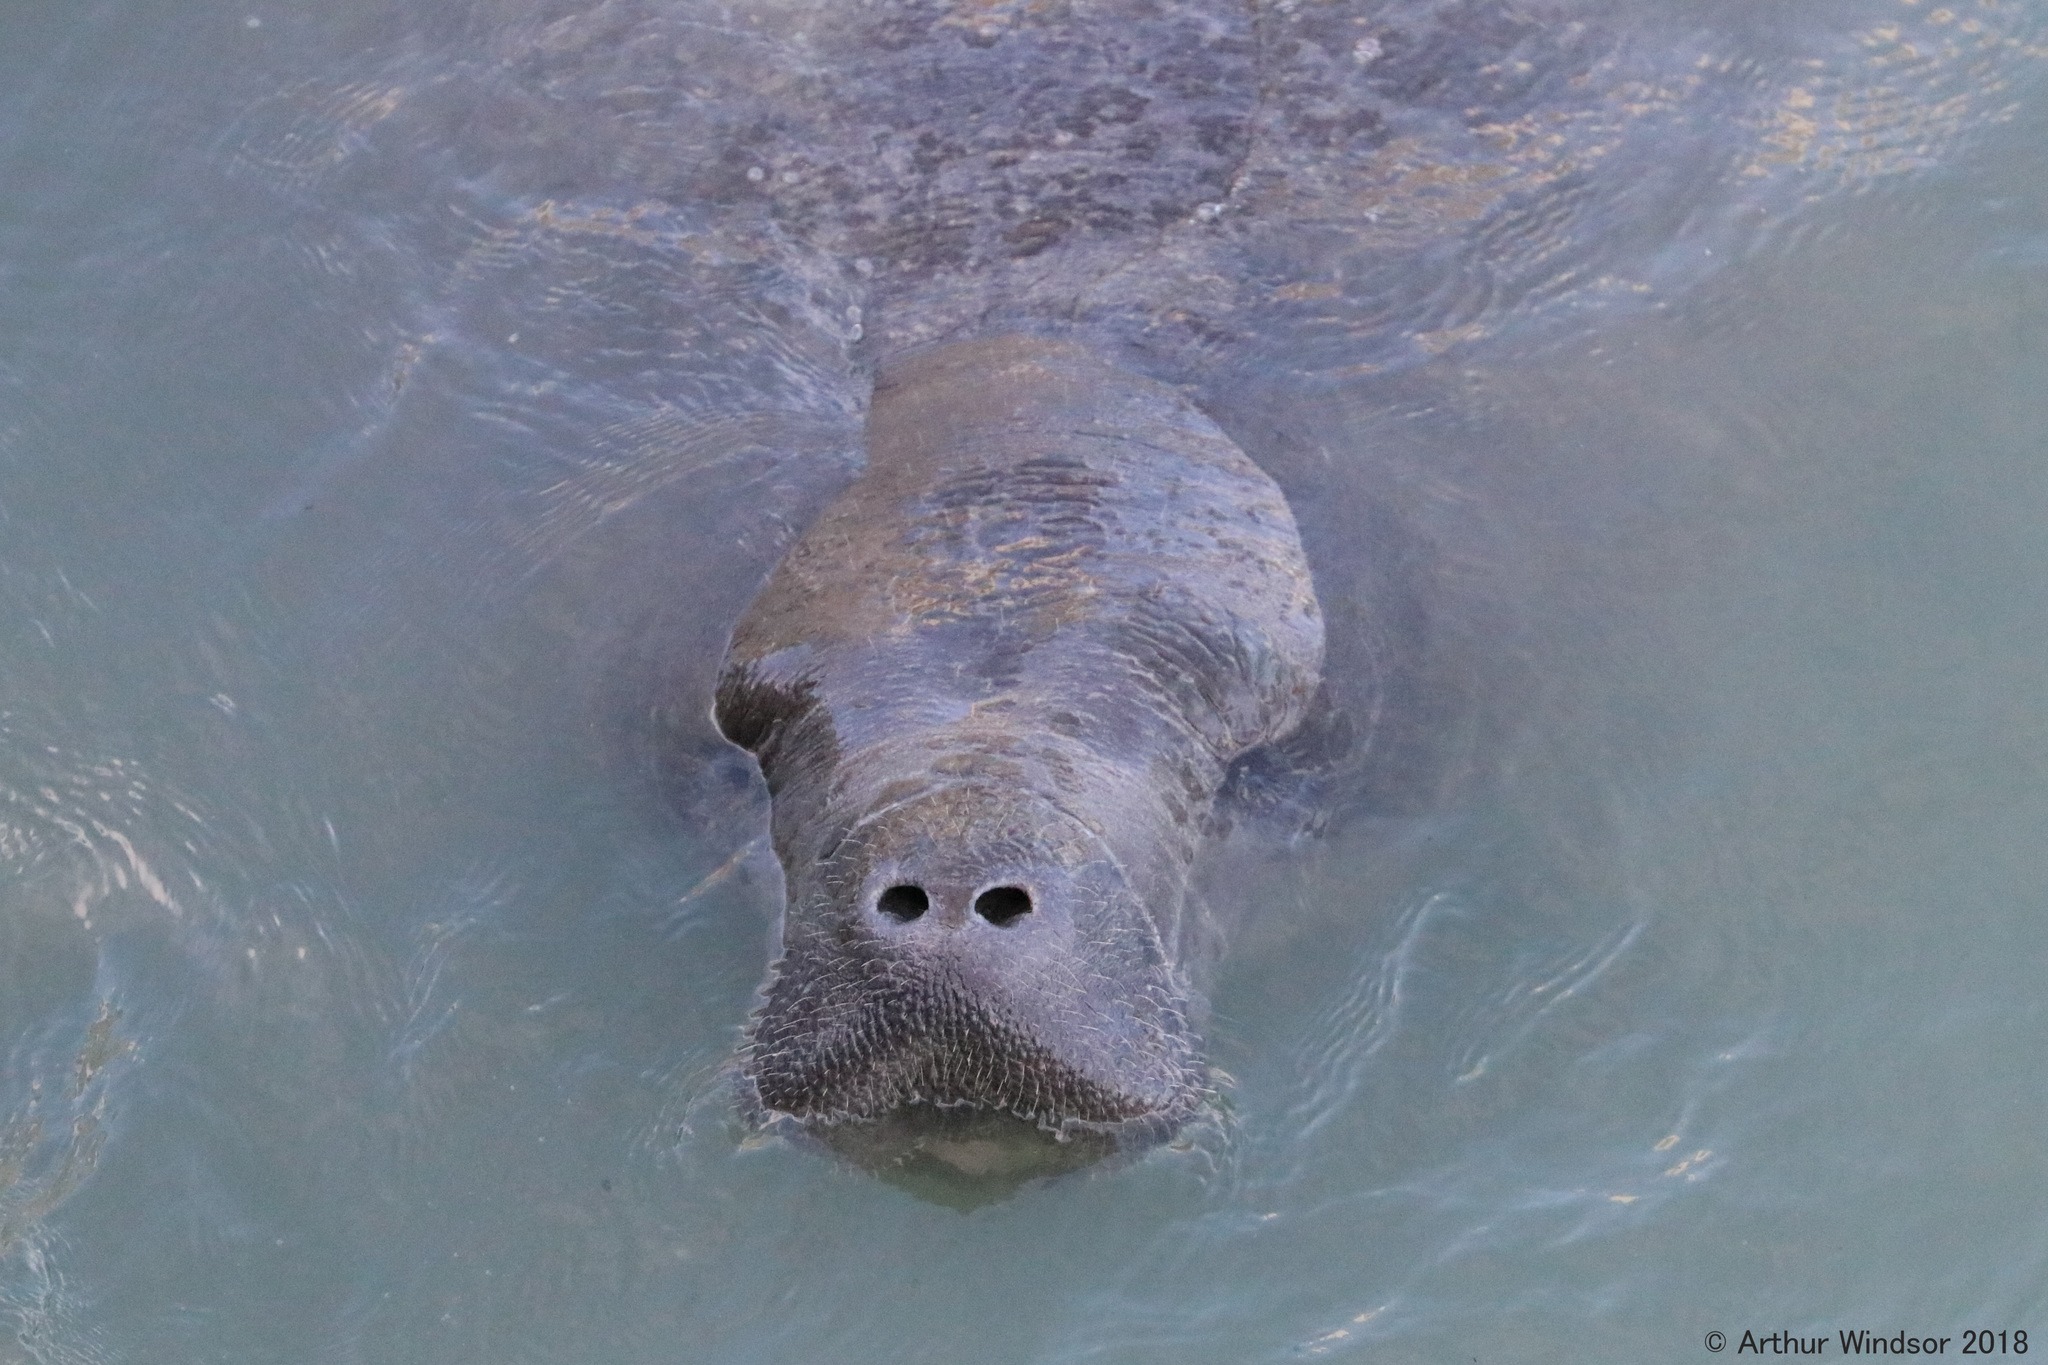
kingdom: Animalia
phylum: Chordata
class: Mammalia
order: Sirenia
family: Trichechidae
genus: Trichechus
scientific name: Trichechus manatus
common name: West indian manatee
